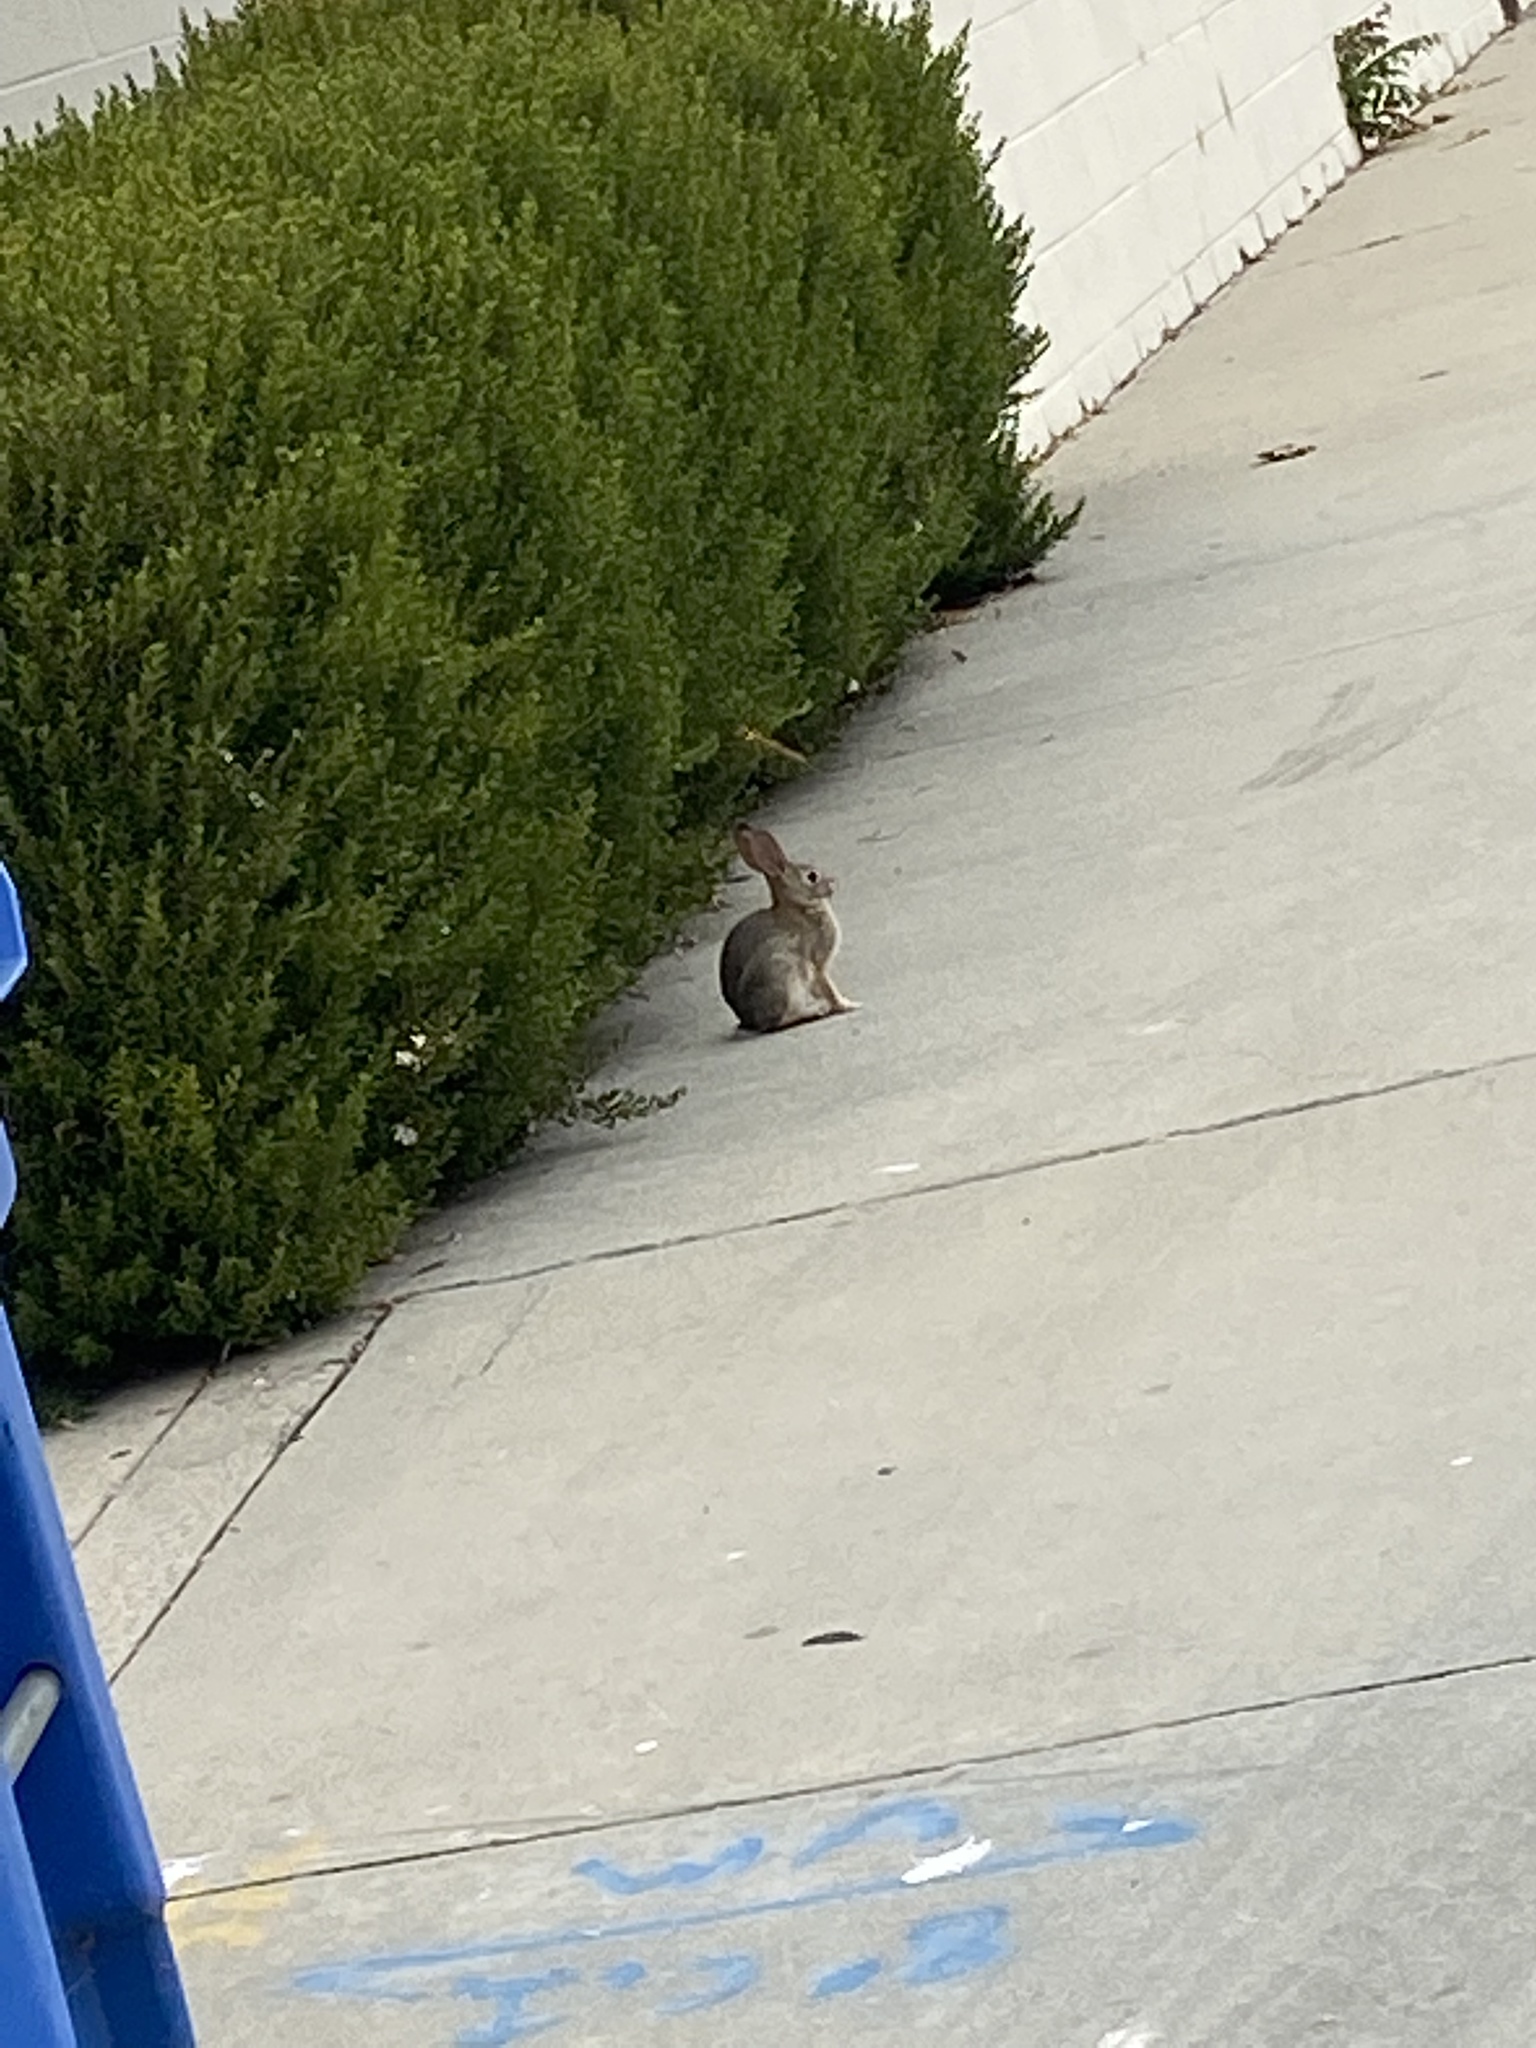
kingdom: Animalia
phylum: Chordata
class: Mammalia
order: Lagomorpha
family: Leporidae
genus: Sylvilagus
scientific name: Sylvilagus audubonii
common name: Desert cottontail
